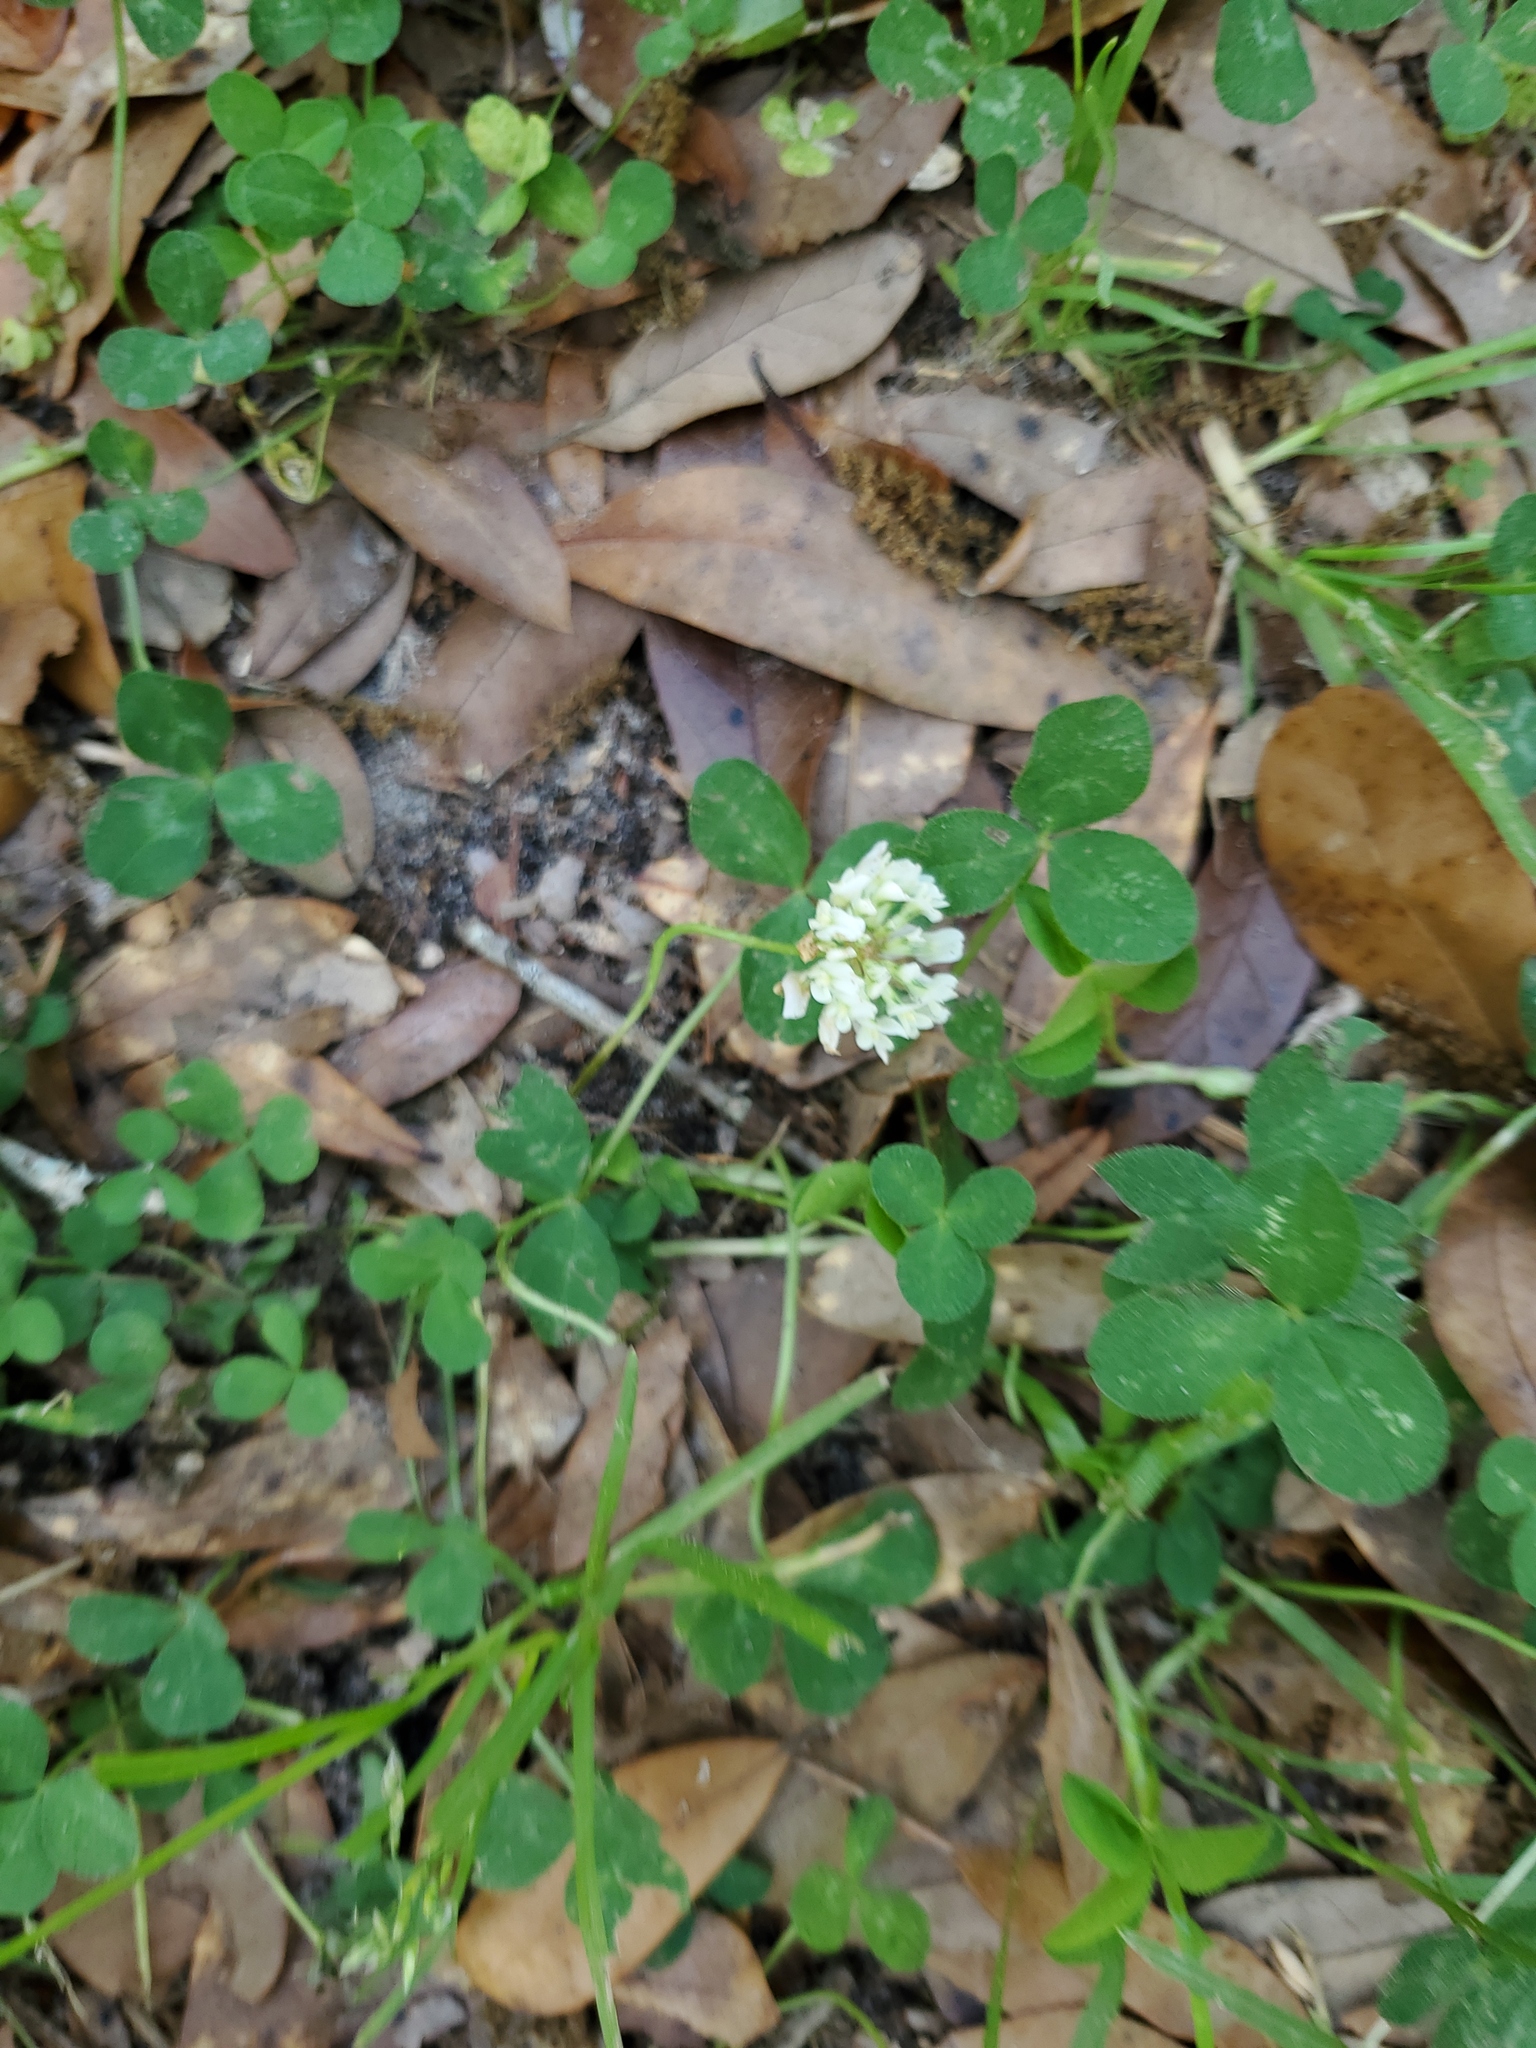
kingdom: Plantae
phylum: Tracheophyta
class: Magnoliopsida
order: Fabales
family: Fabaceae
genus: Trifolium
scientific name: Trifolium repens
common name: White clover
